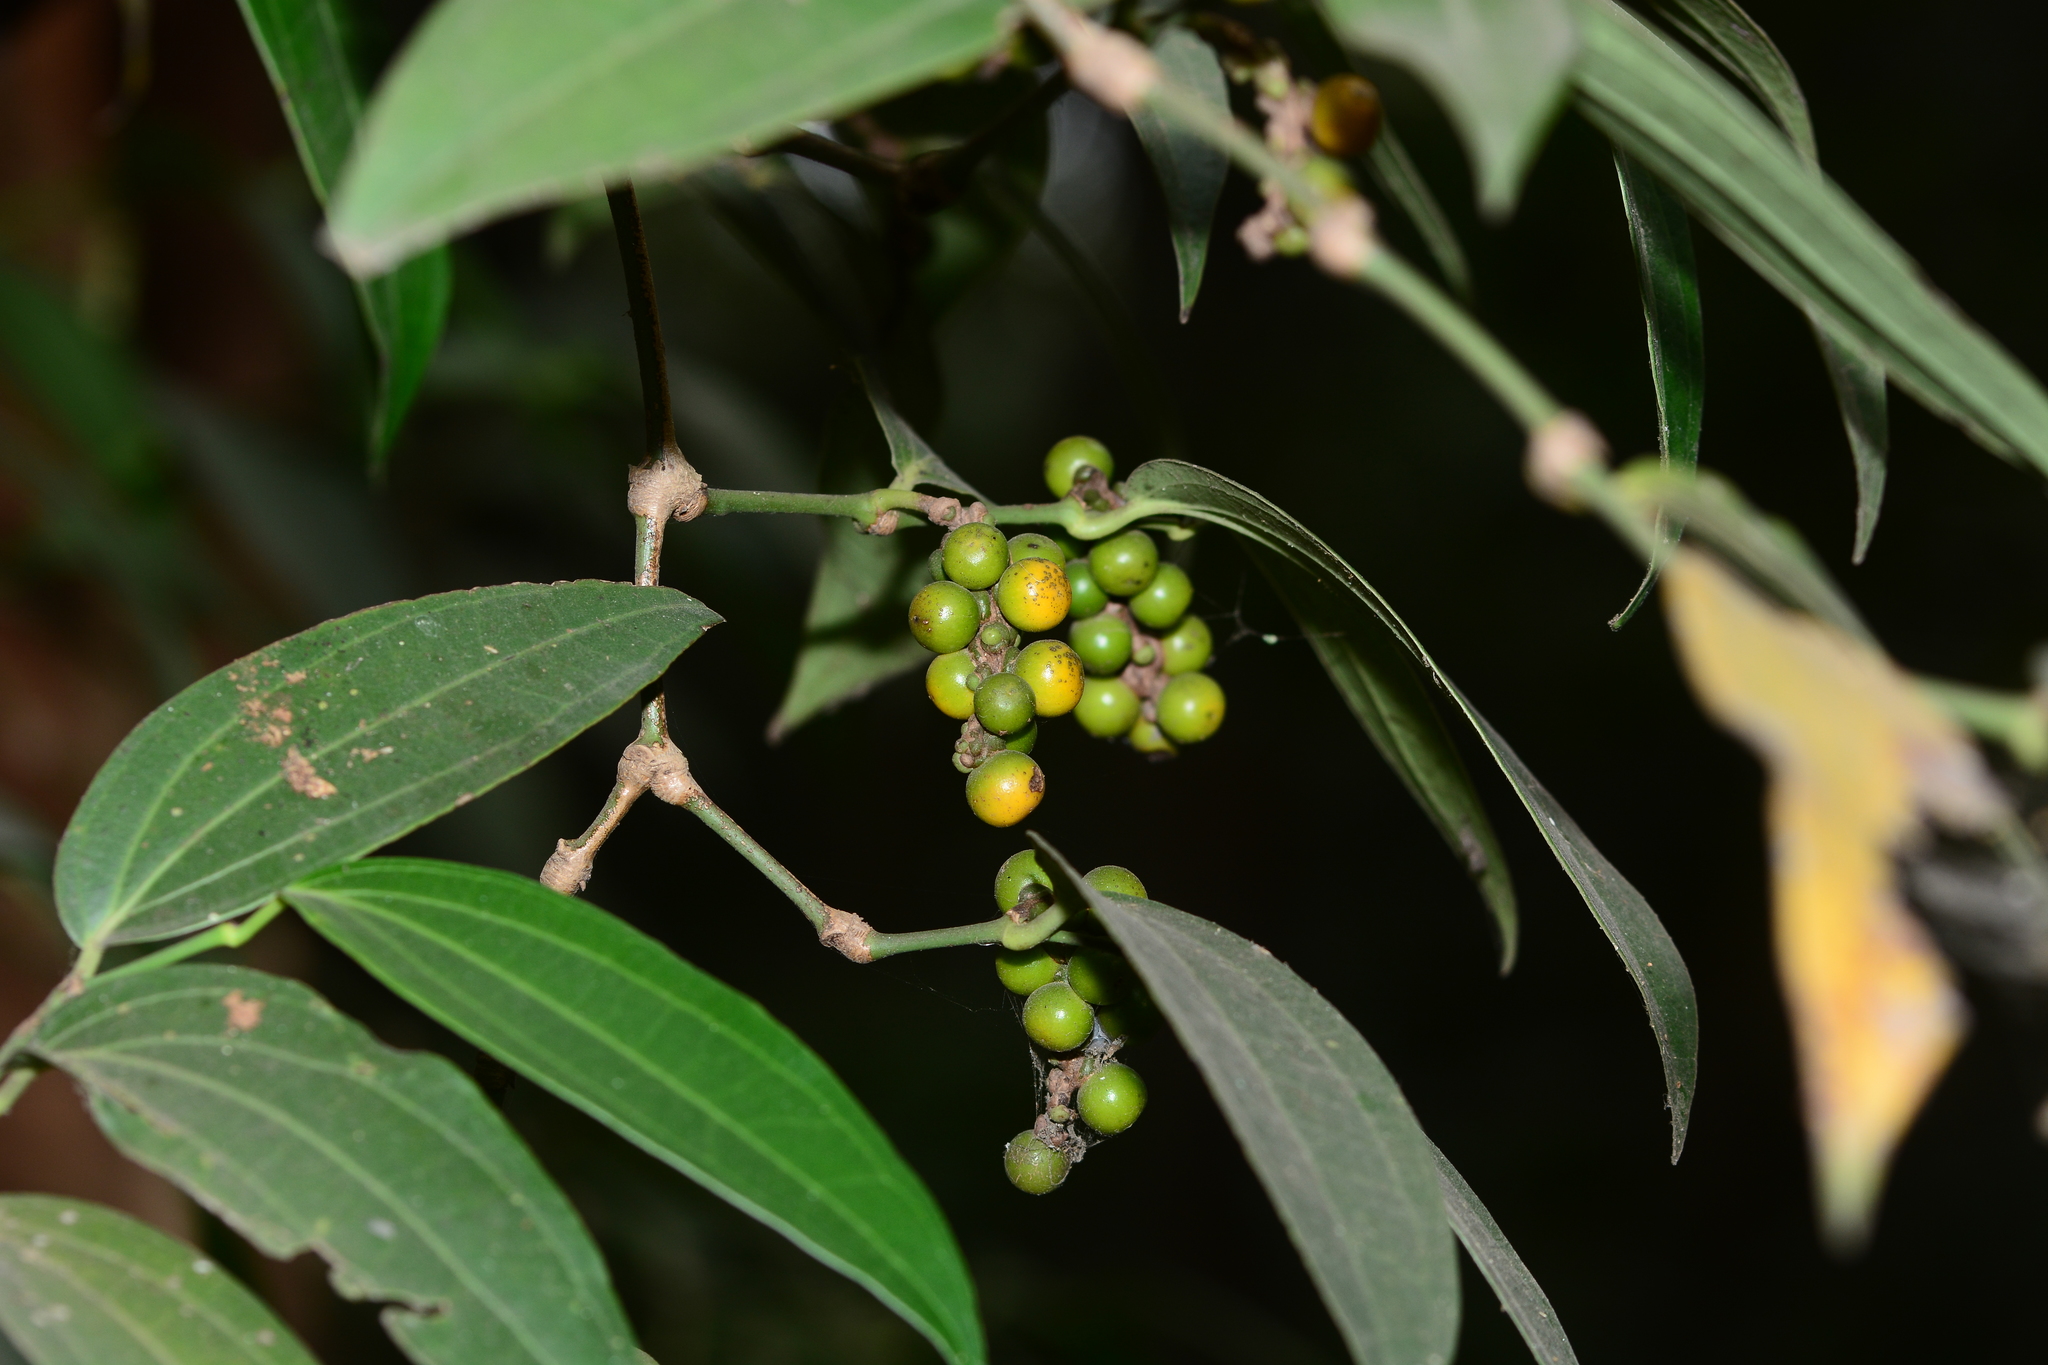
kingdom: Plantae
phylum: Tracheophyta
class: Magnoliopsida
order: Piperales
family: Piperaceae
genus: Piper
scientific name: Piper nigrum
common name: Black pepper
